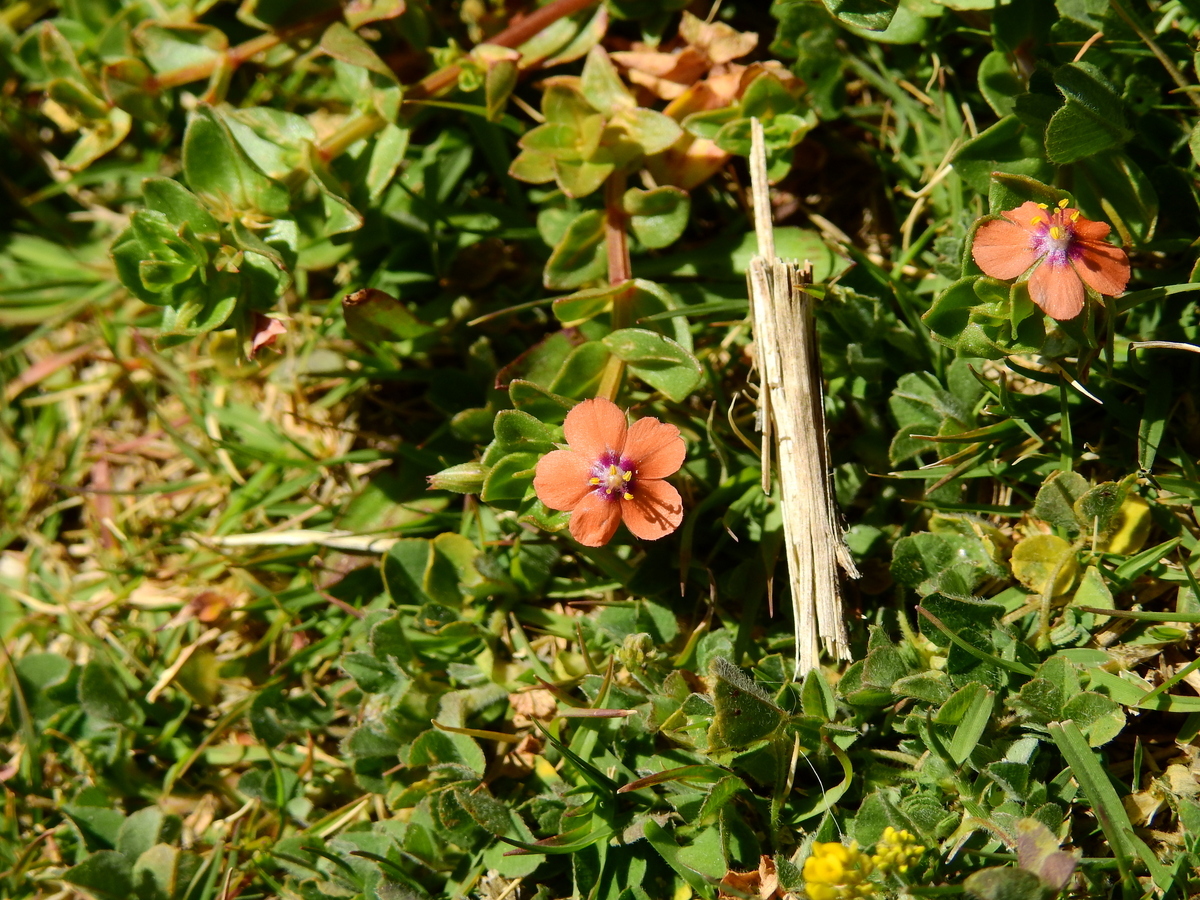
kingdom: Plantae
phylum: Tracheophyta
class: Magnoliopsida
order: Ericales
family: Primulaceae
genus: Lysimachia
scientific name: Lysimachia arvensis
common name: Scarlet pimpernel
